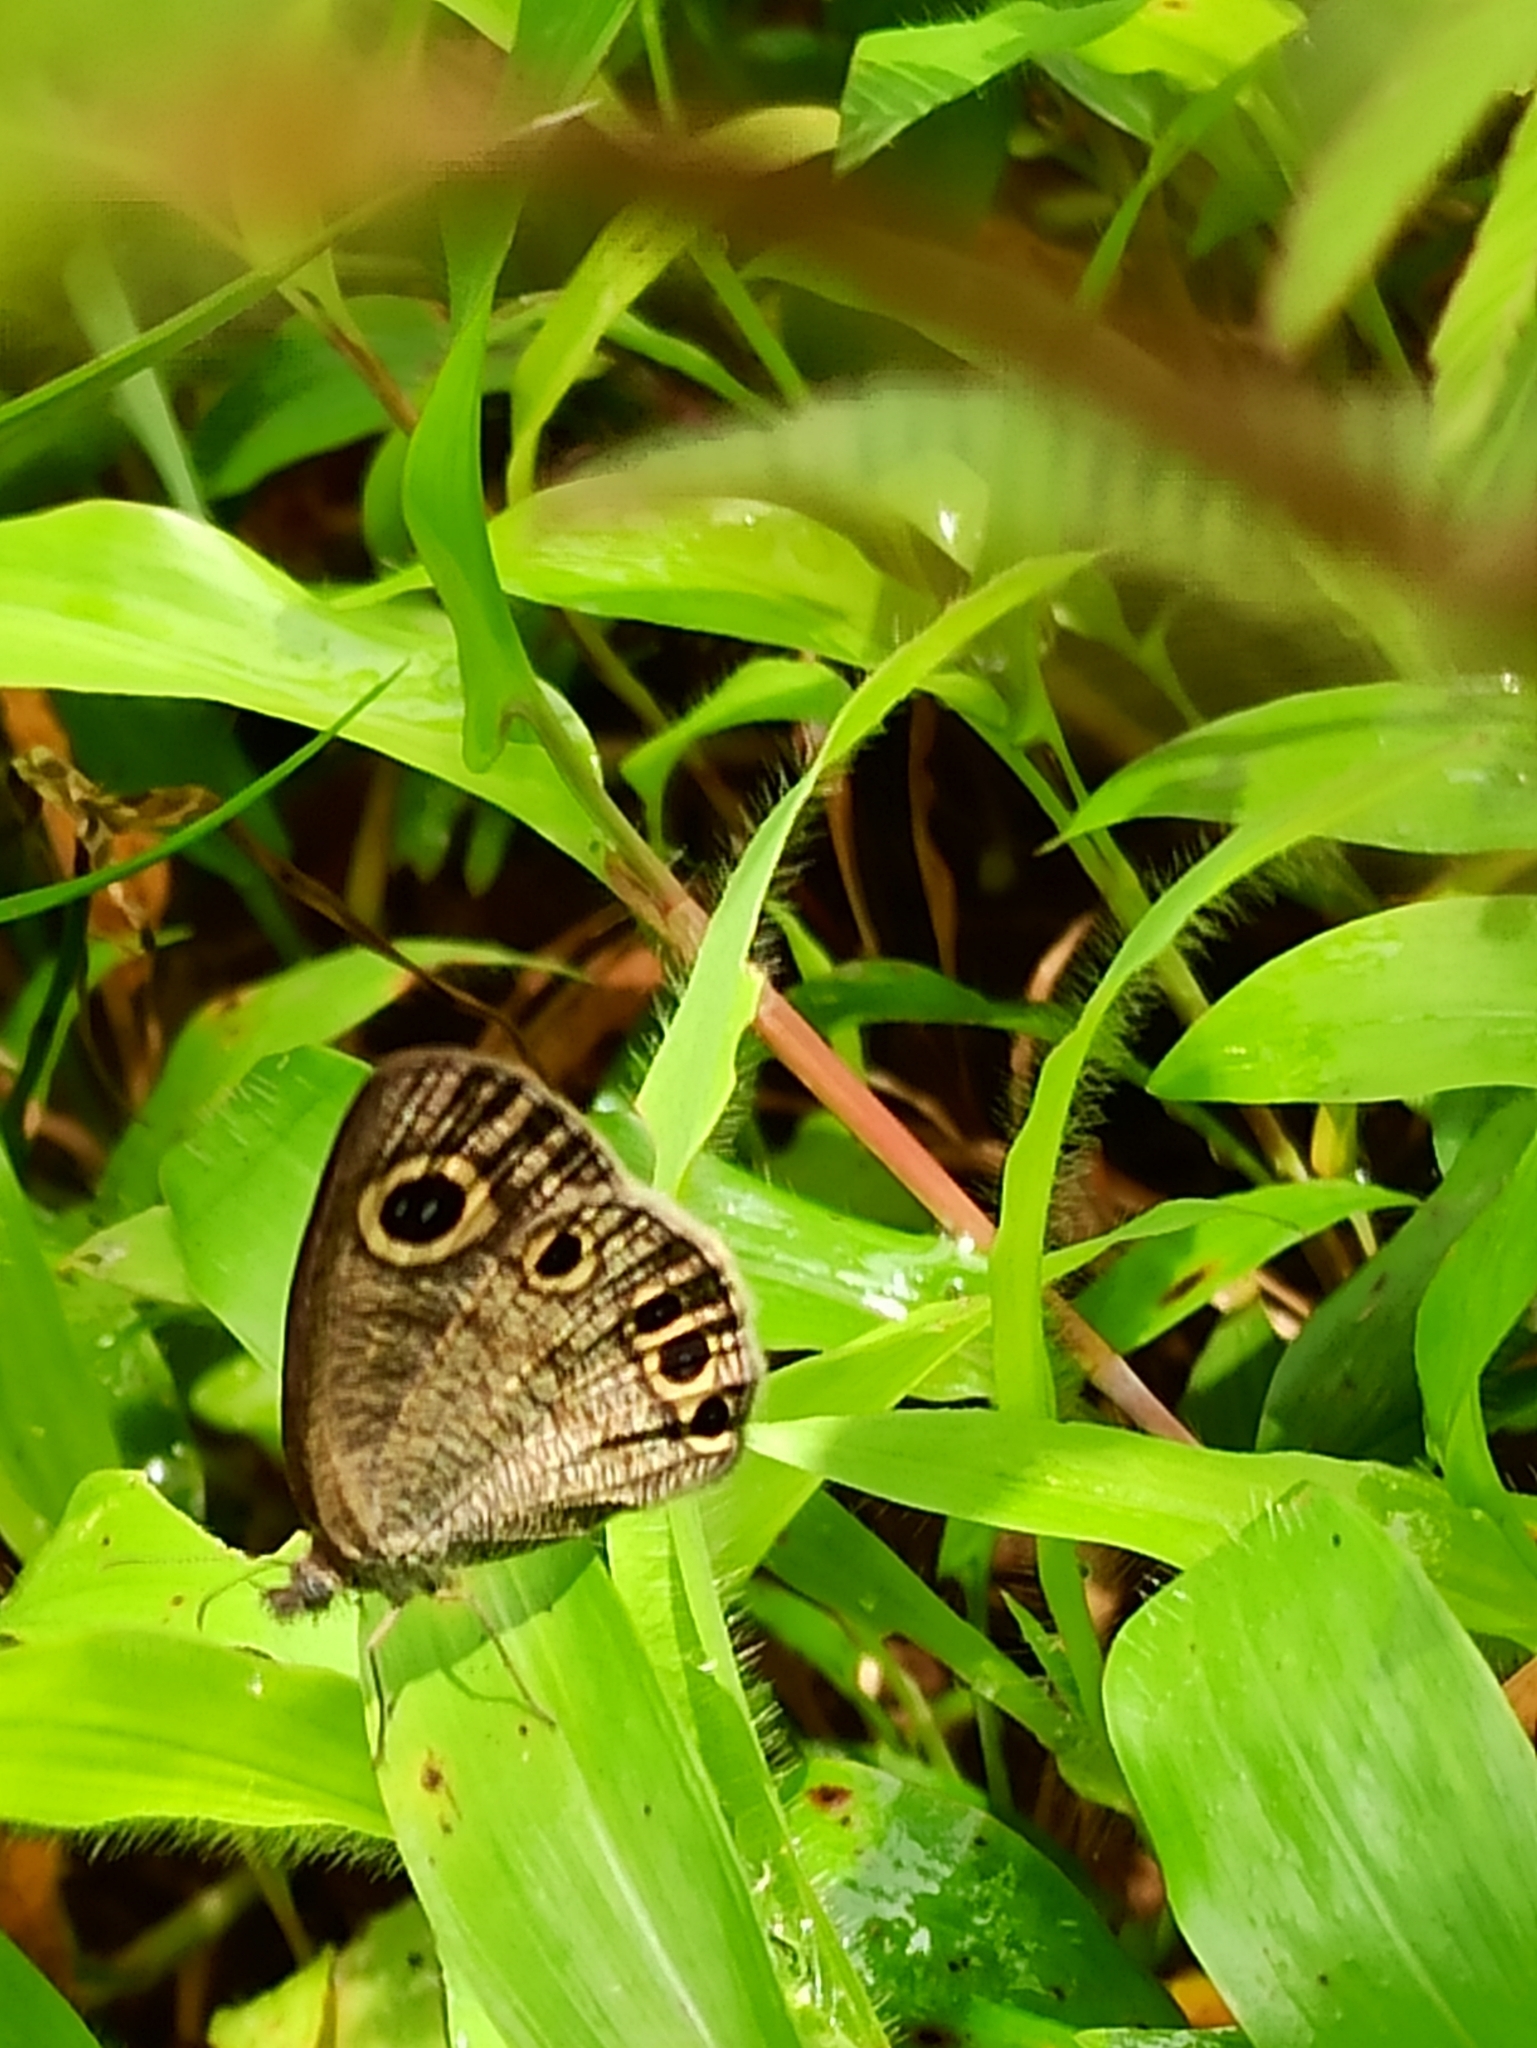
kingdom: Animalia
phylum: Arthropoda
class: Insecta
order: Lepidoptera
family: Nymphalidae
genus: Ypthima
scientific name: Ypthima huebneri
